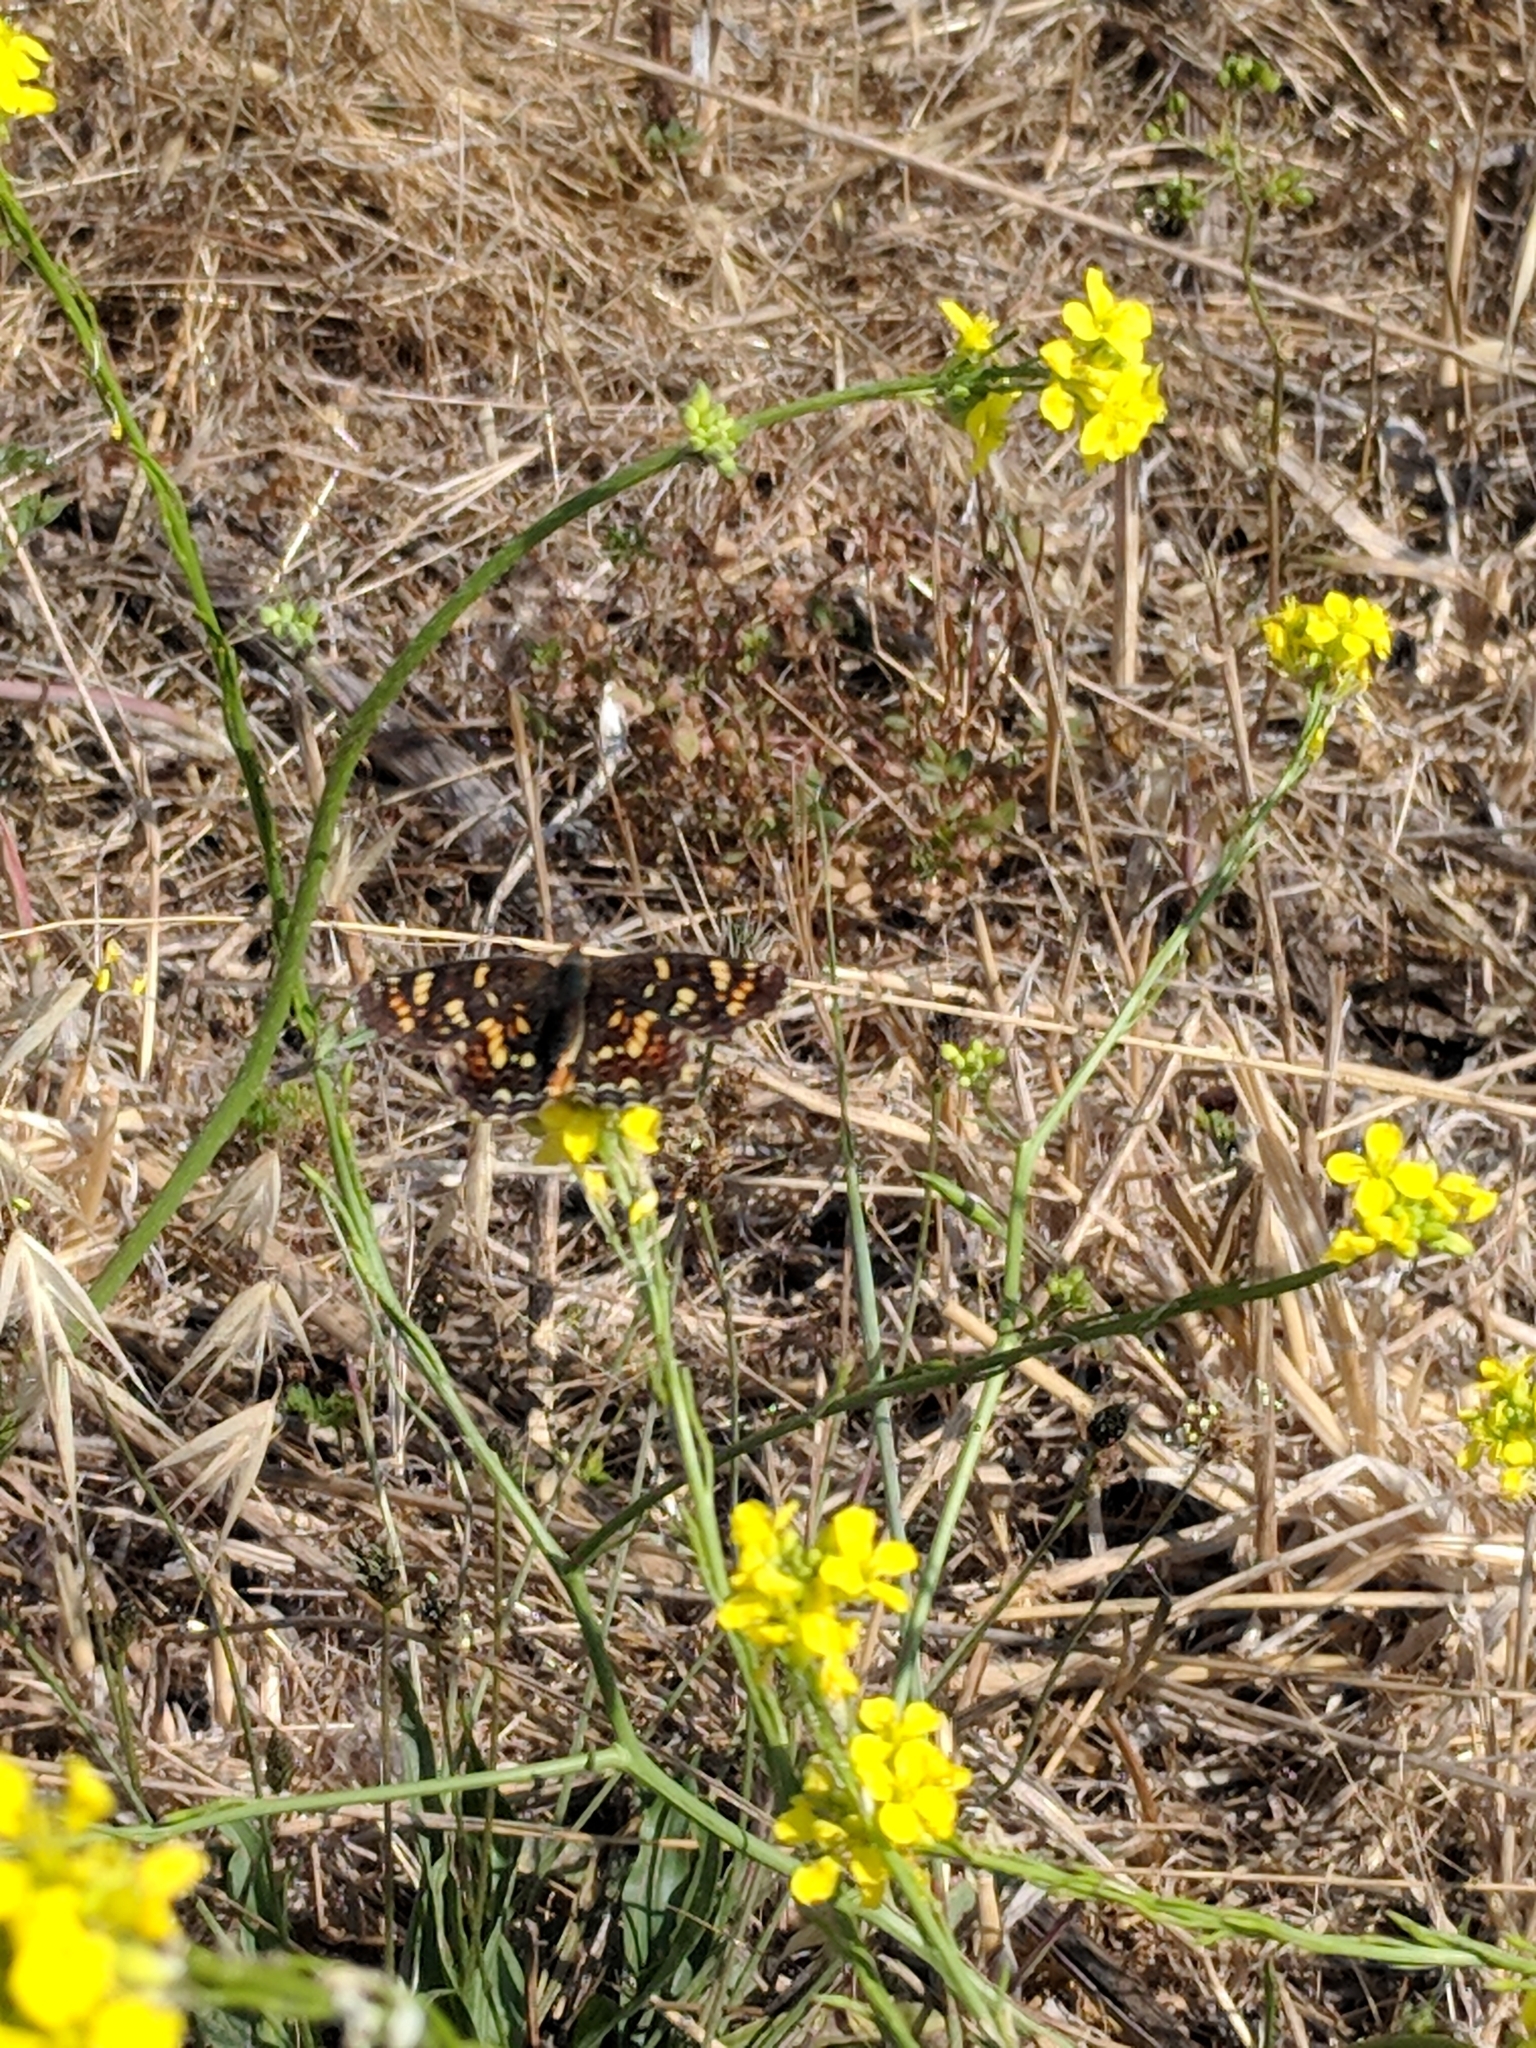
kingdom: Animalia
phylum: Arthropoda
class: Insecta
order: Lepidoptera
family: Nymphalidae
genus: Phyciodes
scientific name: Phyciodes tharos
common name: Pearl crescent
